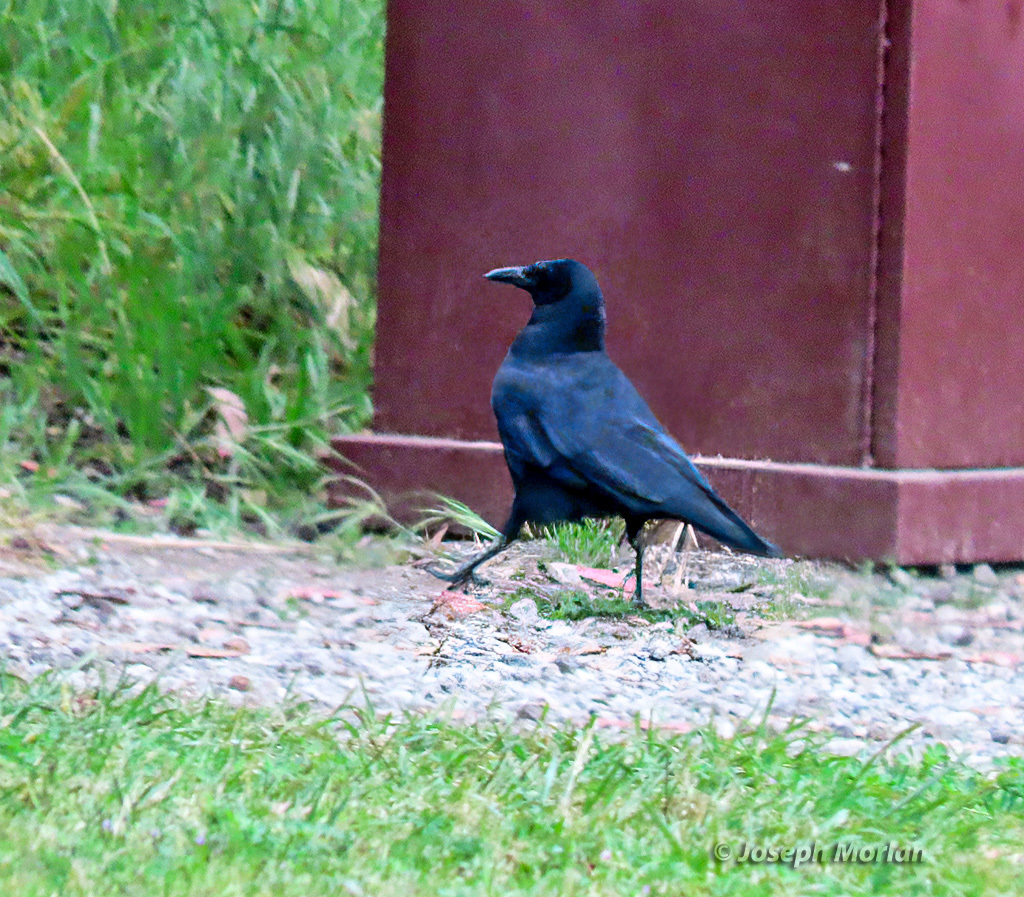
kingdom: Animalia
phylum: Chordata
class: Aves
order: Passeriformes
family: Corvidae
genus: Corvus
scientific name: Corvus brachyrhynchos
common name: American crow
